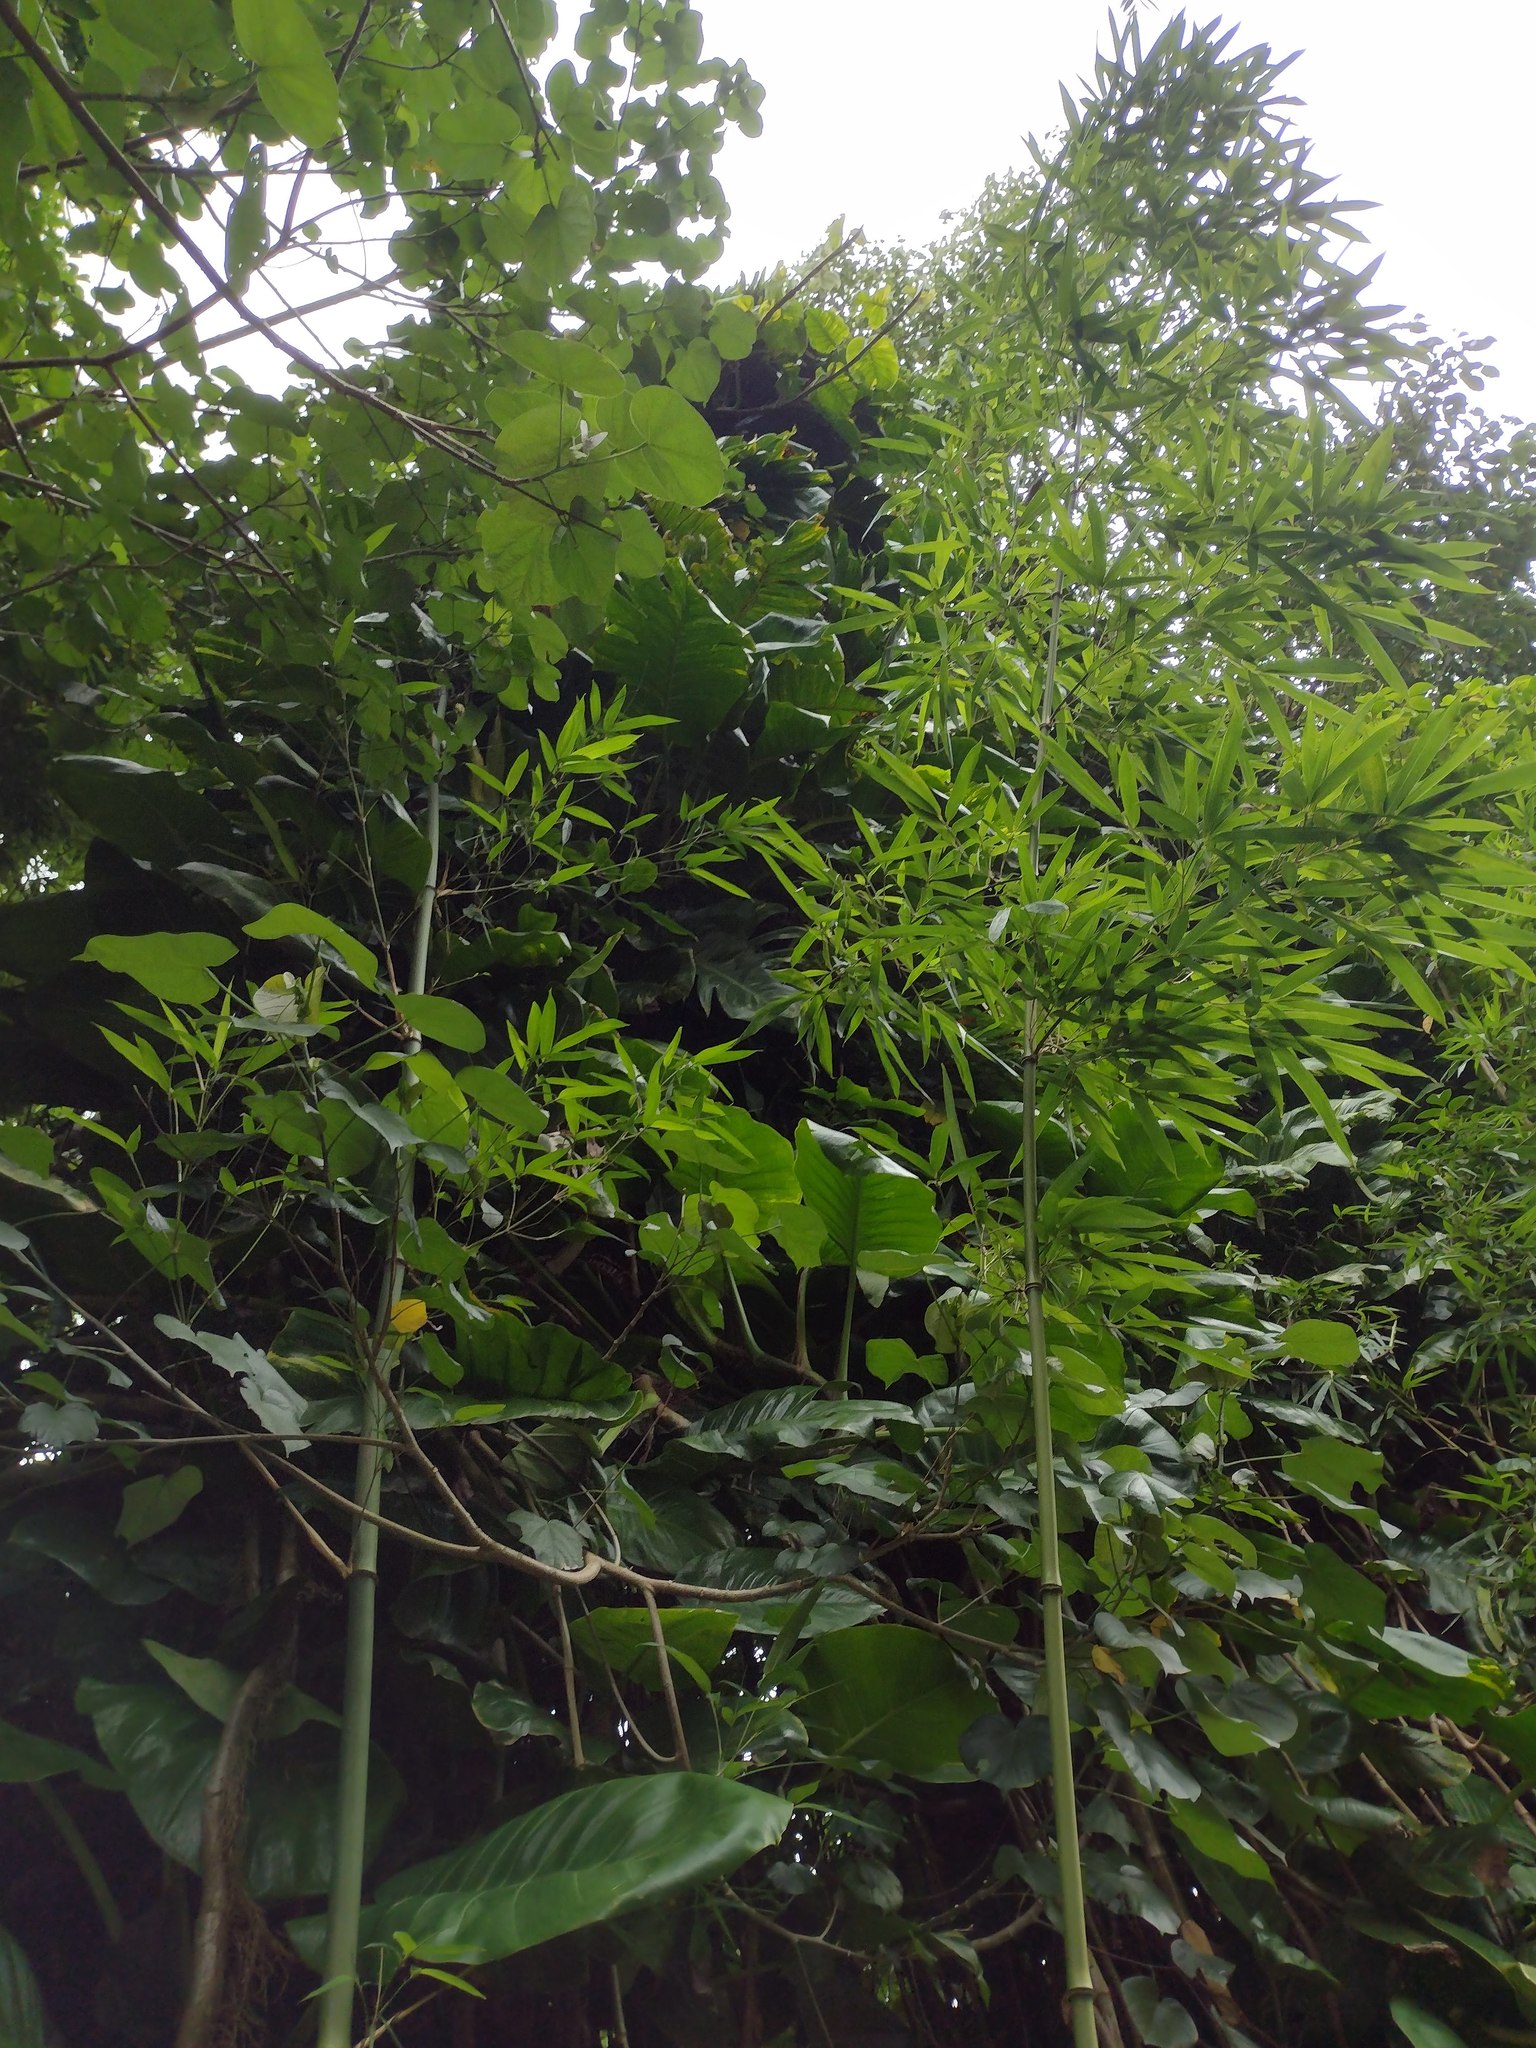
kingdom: Plantae
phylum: Tracheophyta
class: Liliopsida
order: Poales
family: Poaceae
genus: Phyllostachys
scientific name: Phyllostachys nigra
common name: Black bamboo
